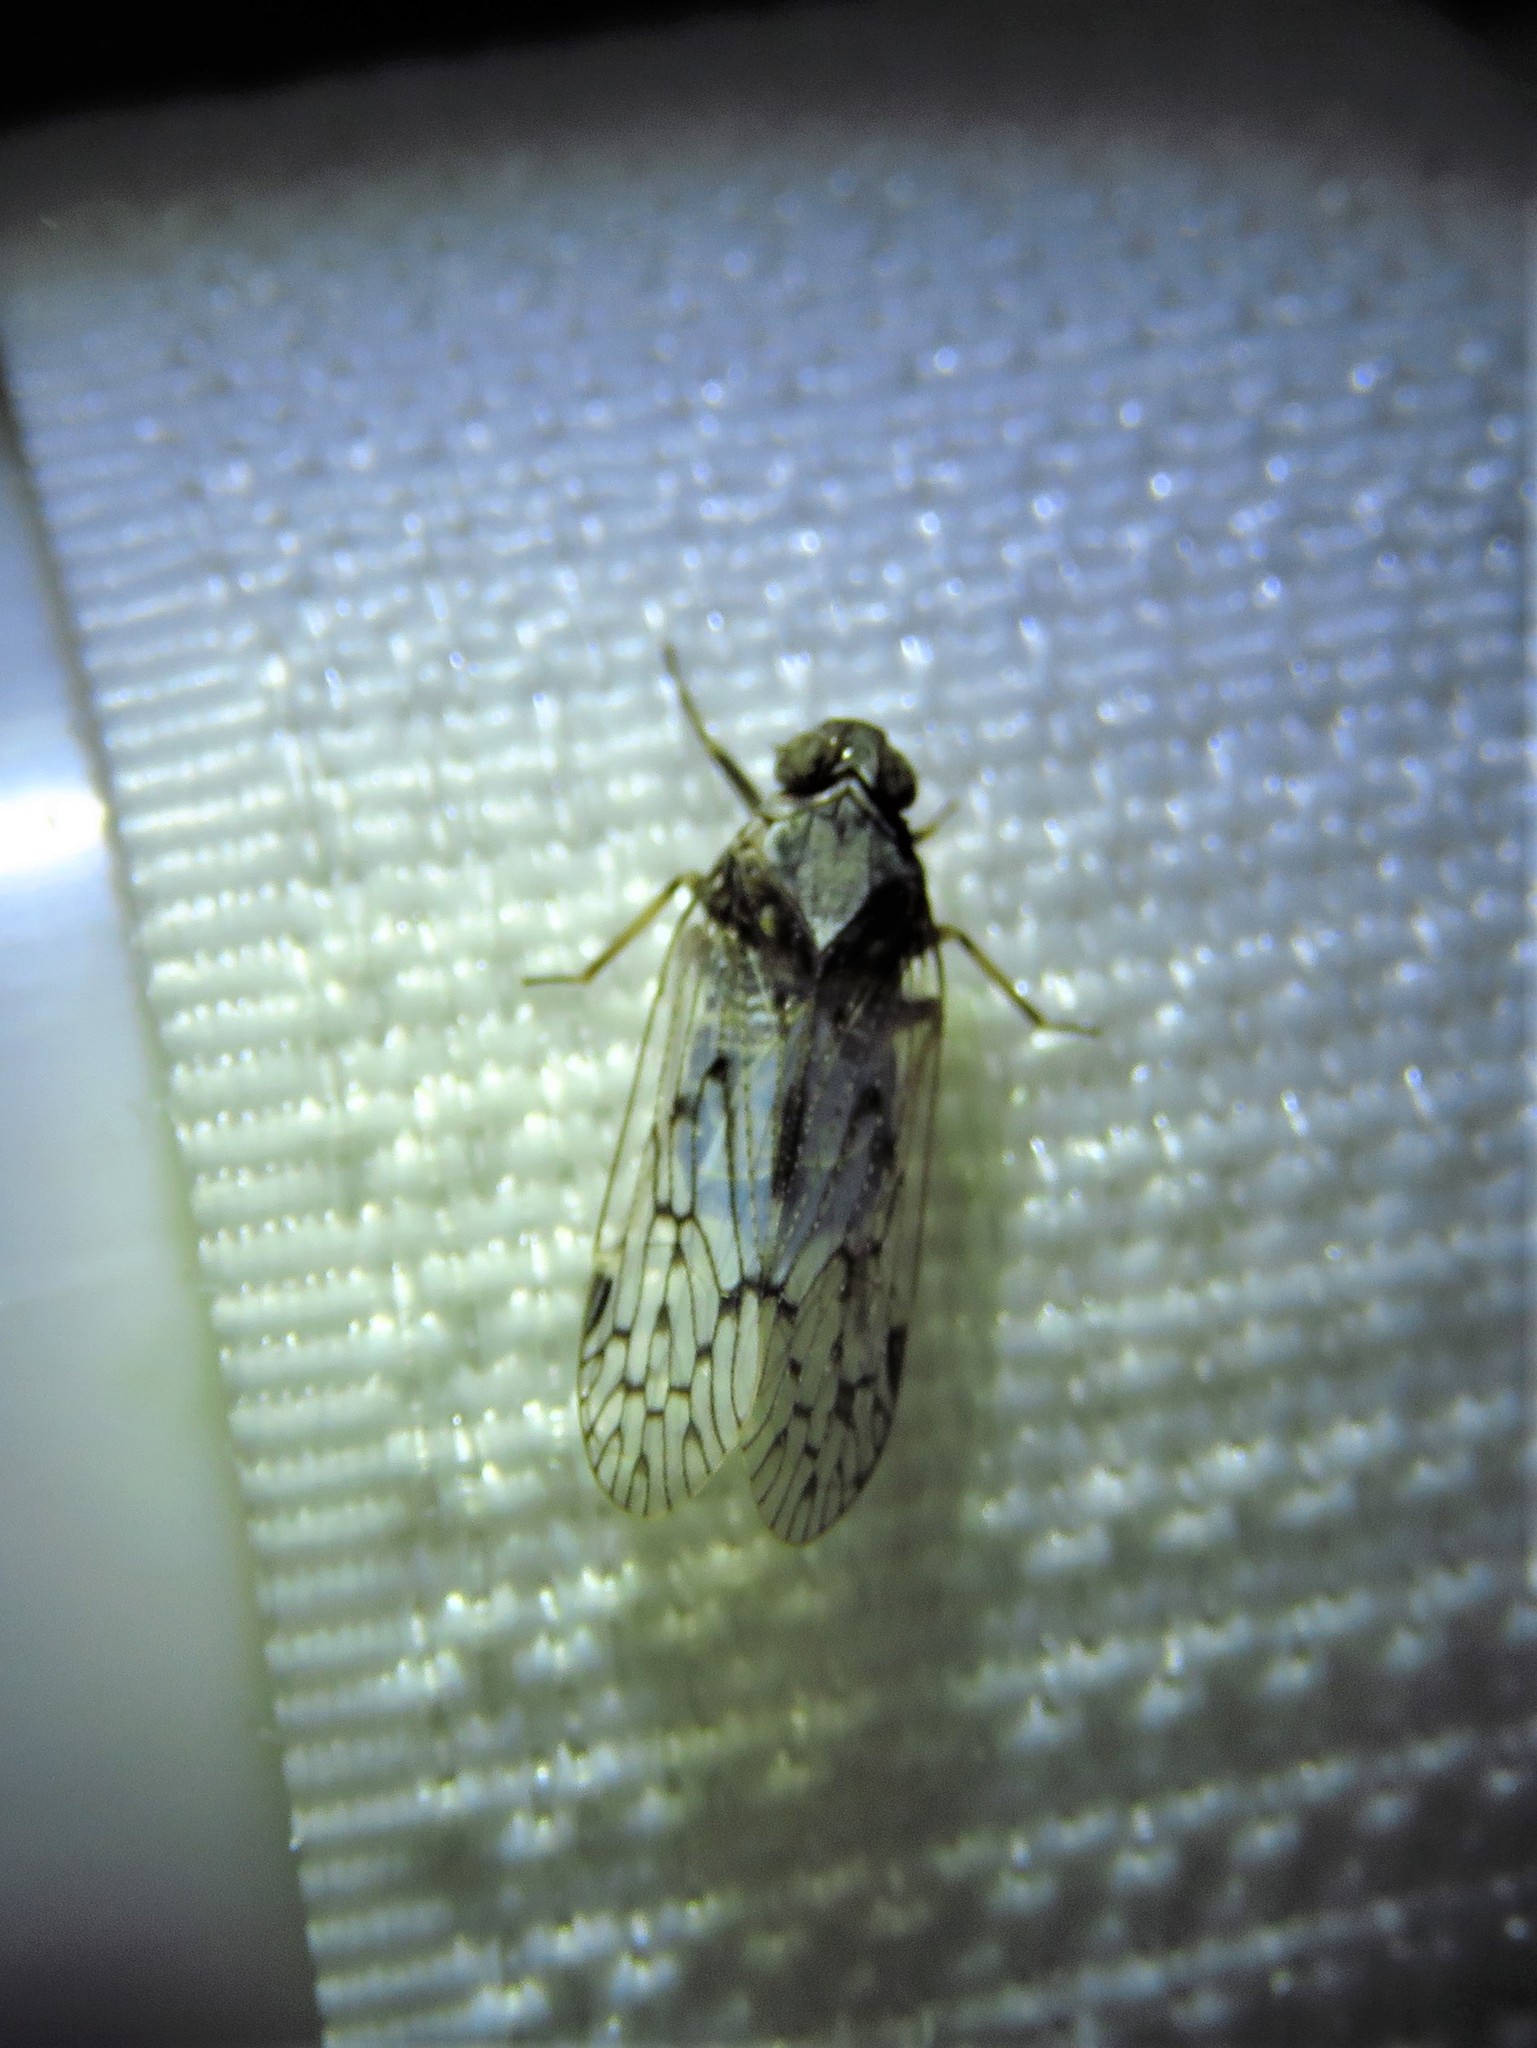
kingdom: Animalia
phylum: Arthropoda
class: Insecta
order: Hemiptera
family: Cixiidae
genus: Melanoliarus
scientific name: Melanoliarus aridus
